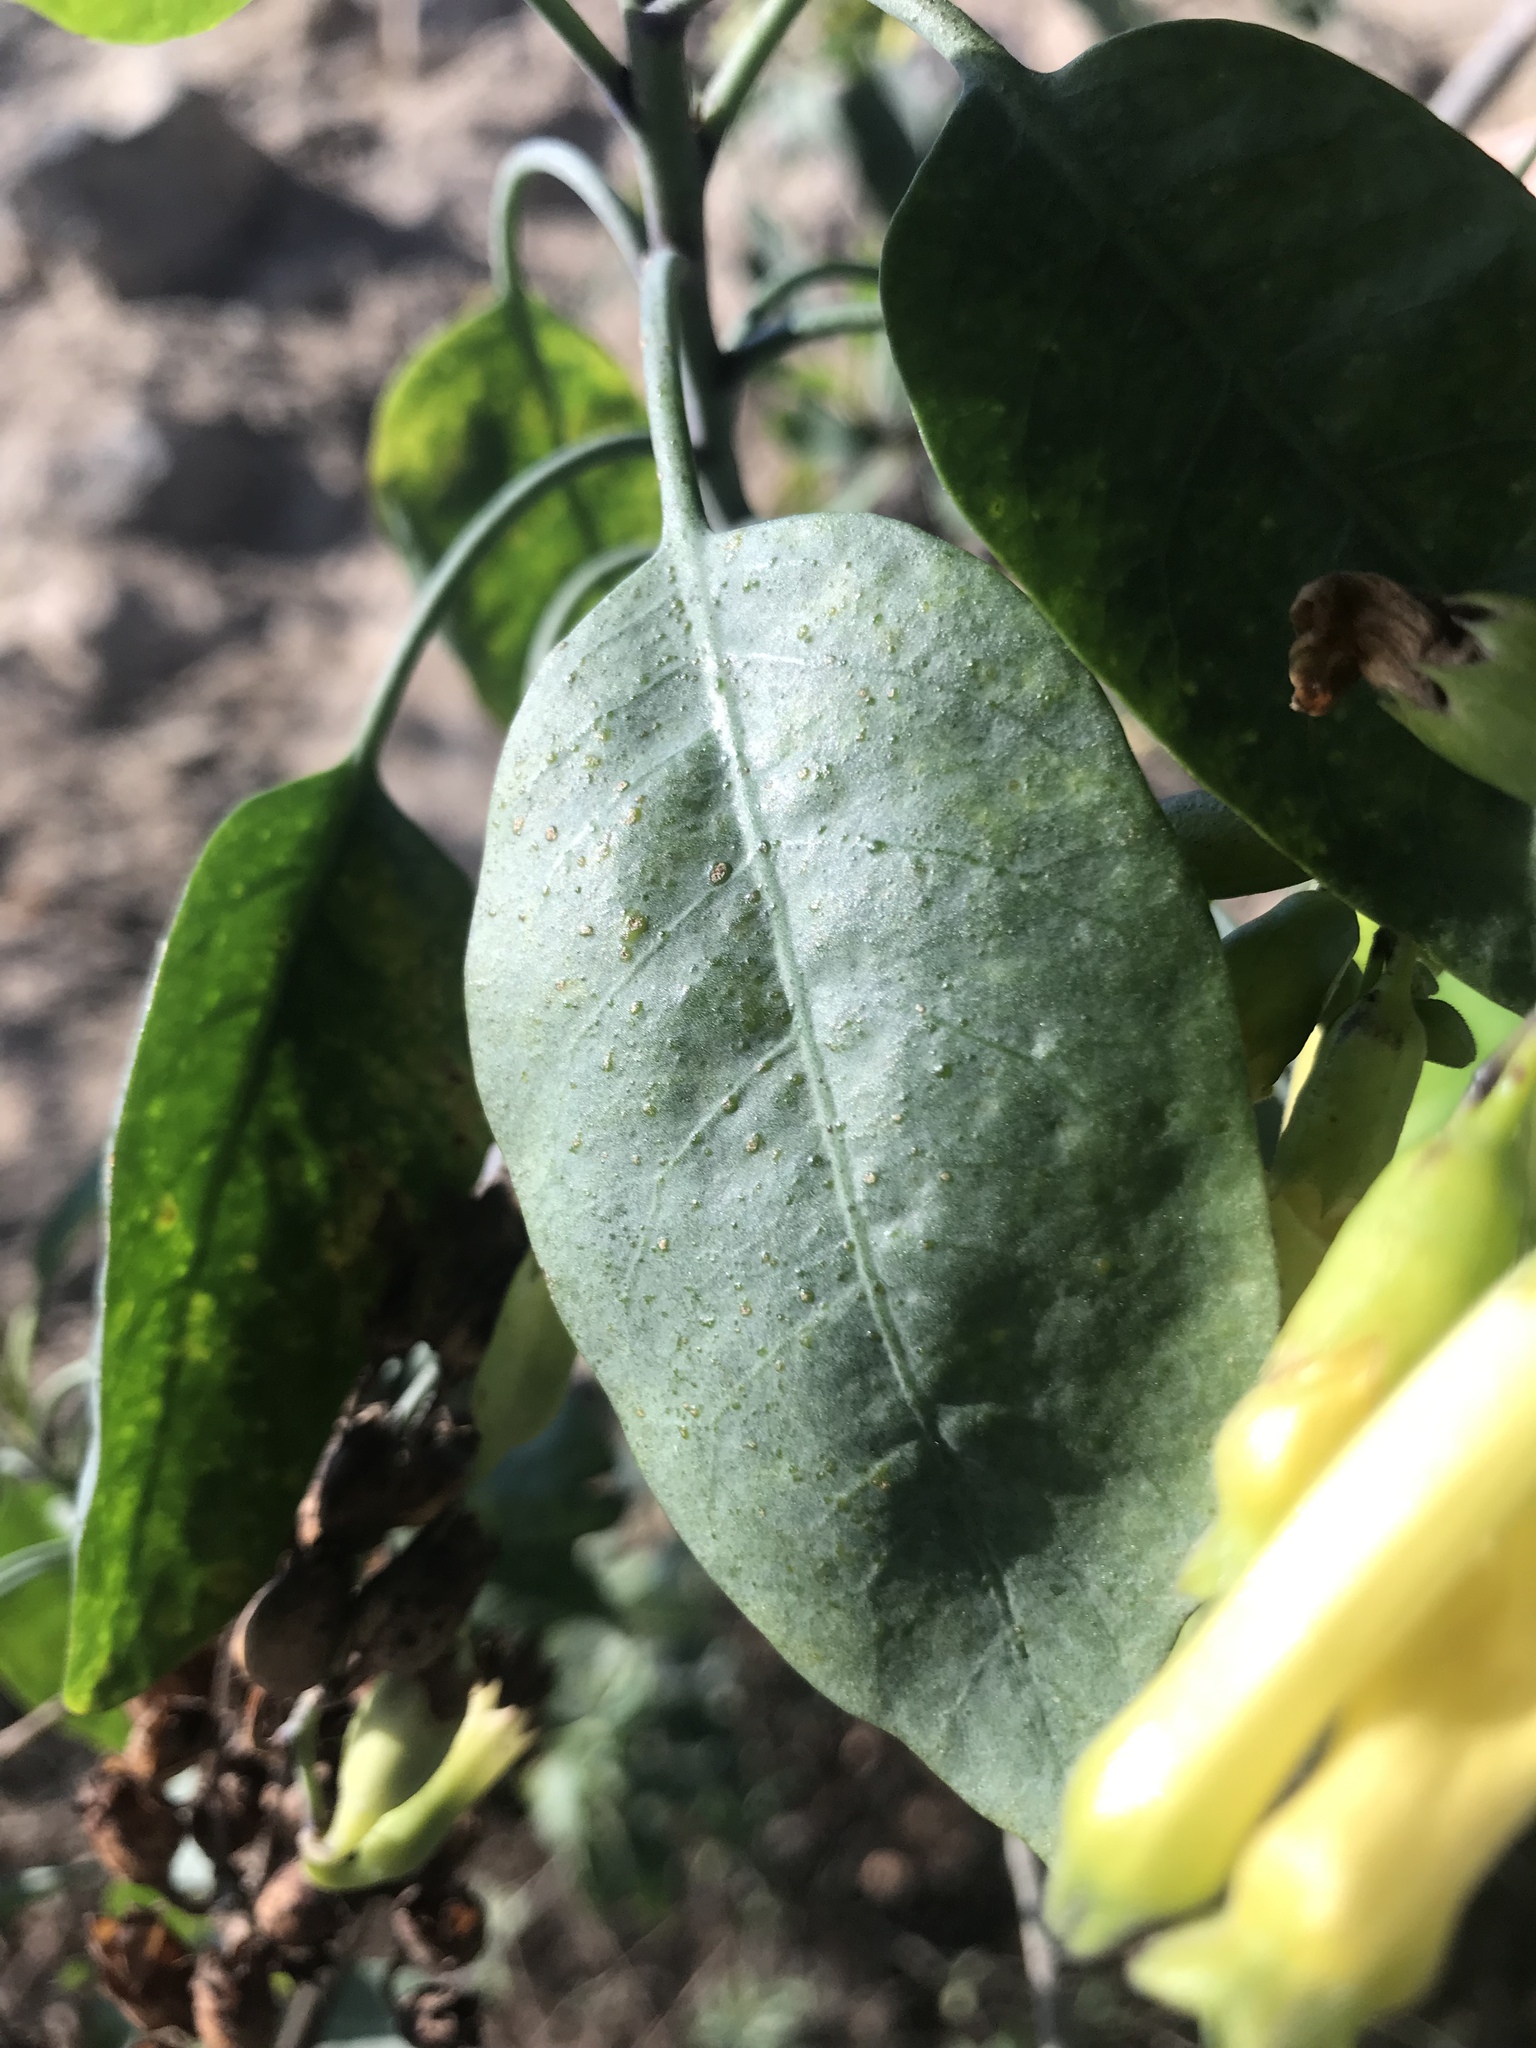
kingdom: Plantae
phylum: Tracheophyta
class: Magnoliopsida
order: Solanales
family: Solanaceae
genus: Nicotiana
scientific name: Nicotiana glauca
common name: Tree tobacco
